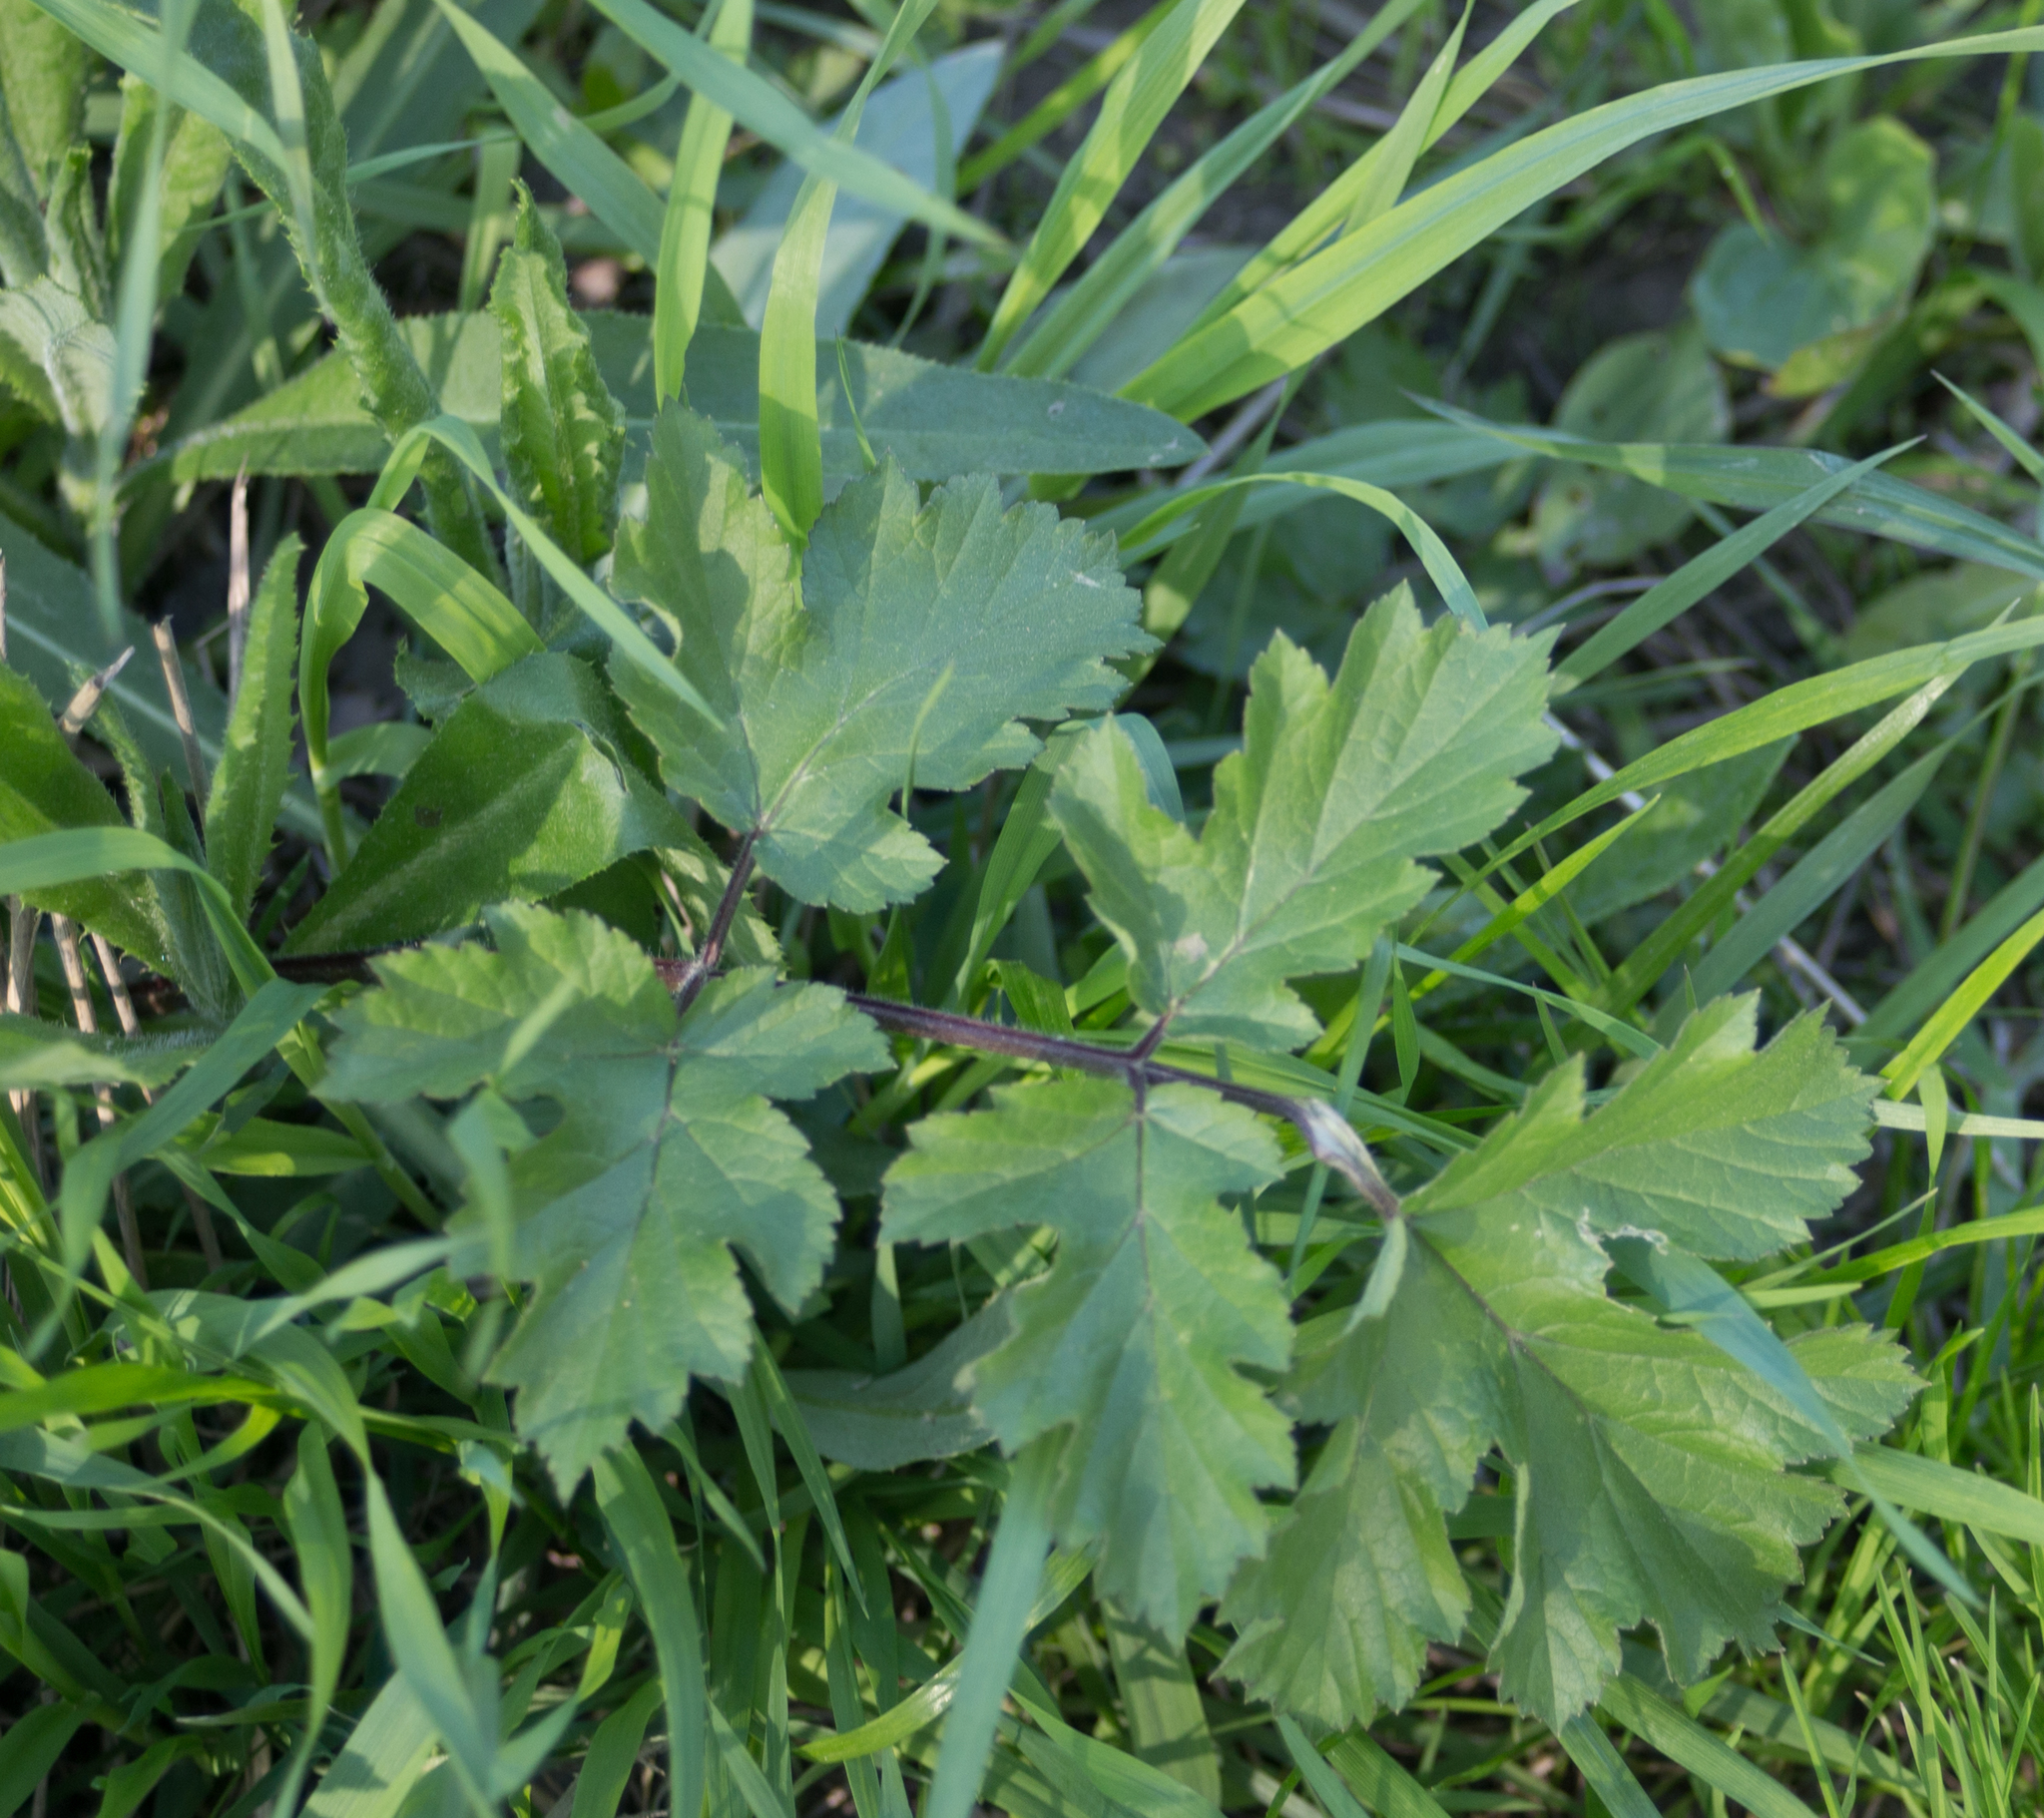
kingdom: Plantae
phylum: Tracheophyta
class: Magnoliopsida
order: Apiales
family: Apiaceae
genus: Heracleum
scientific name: Heracleum sphondylium
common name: Hogweed
